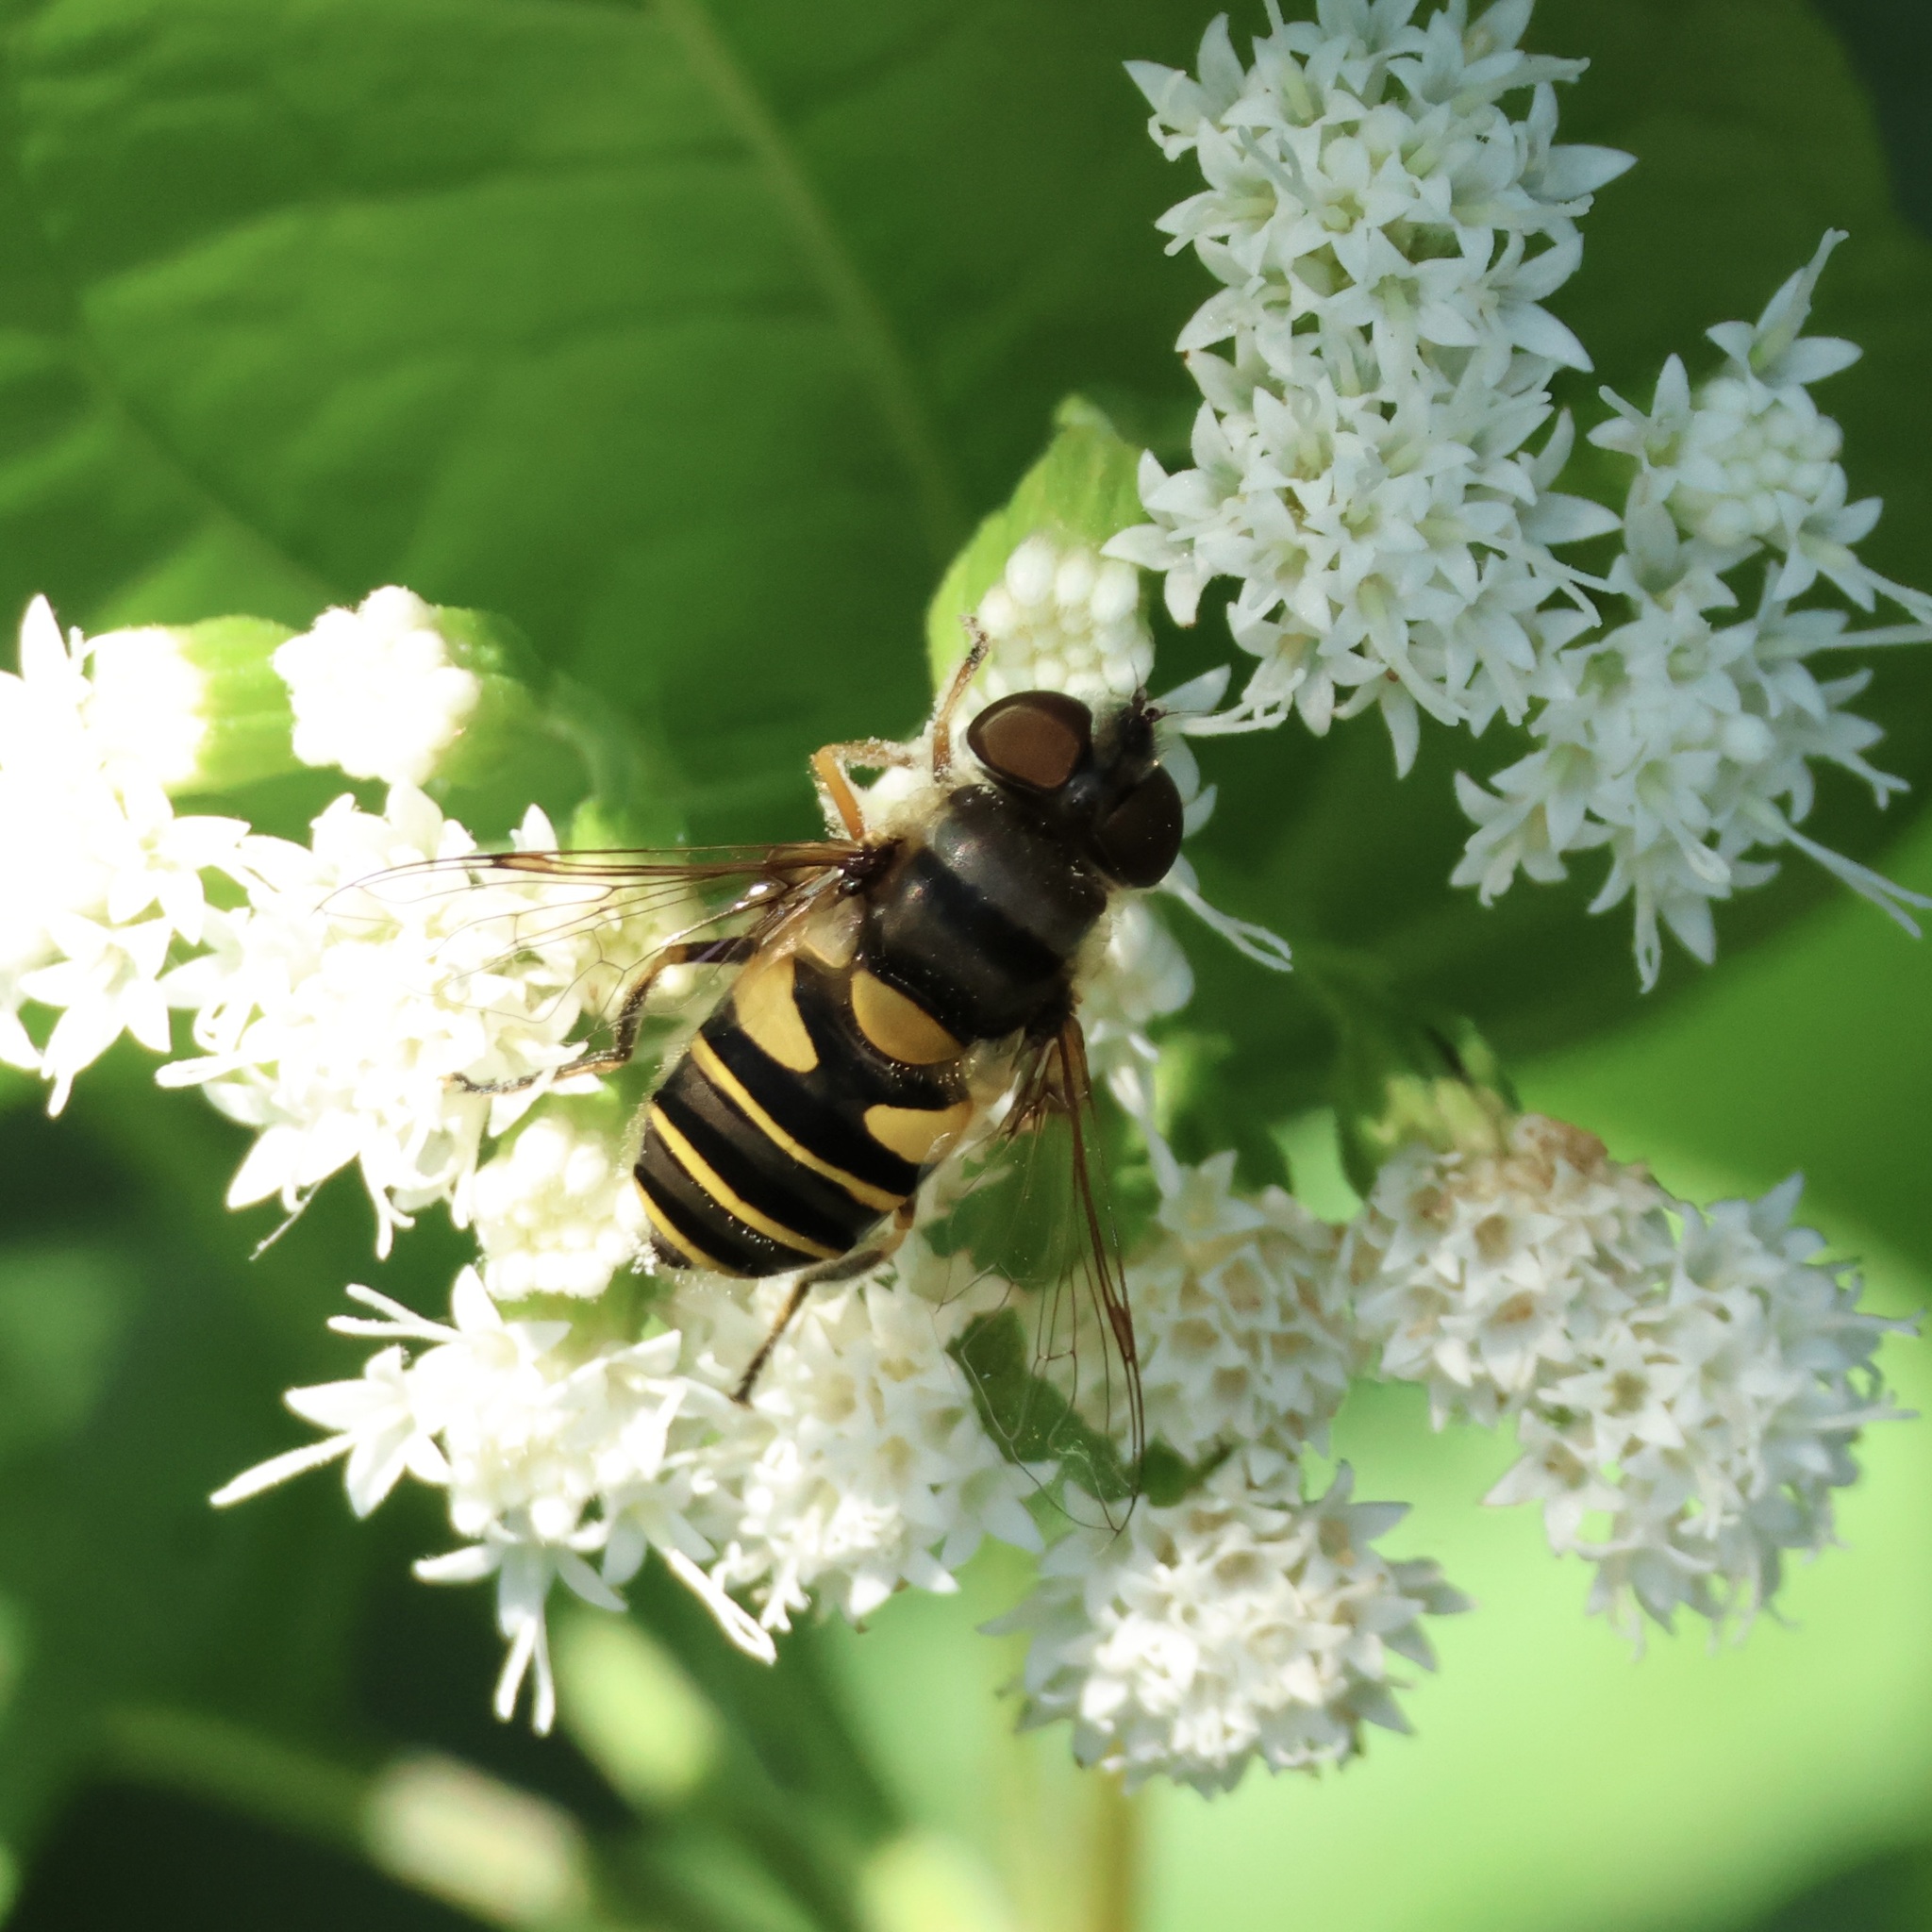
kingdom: Animalia
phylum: Arthropoda
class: Insecta
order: Diptera
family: Syrphidae
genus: Eristalis
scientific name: Eristalis transversa
